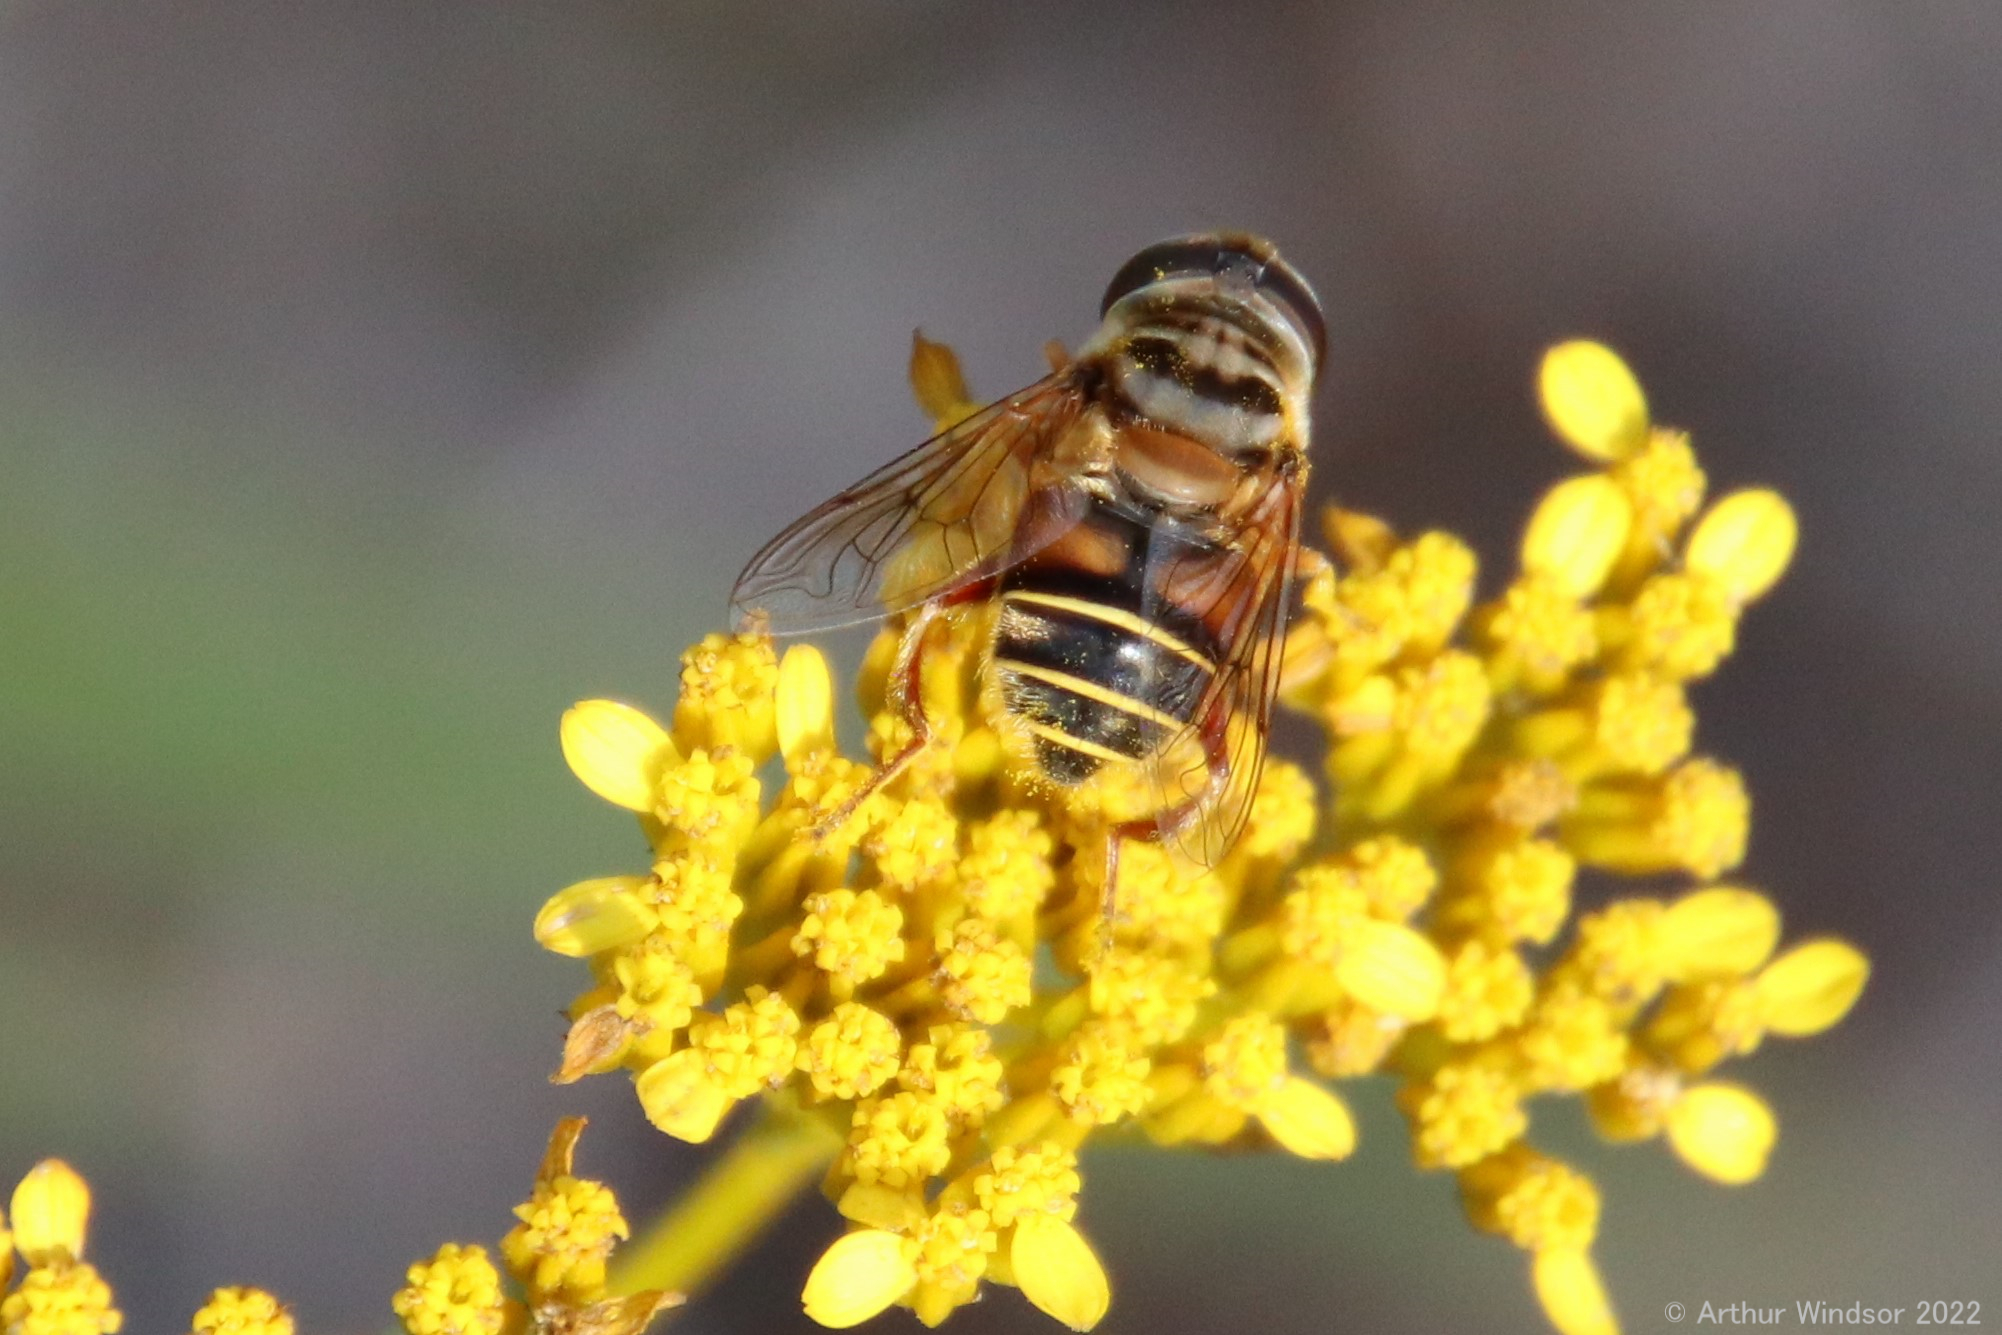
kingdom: Animalia
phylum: Arthropoda
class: Insecta
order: Diptera
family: Syrphidae
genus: Palpada
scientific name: Palpada vinetorum
